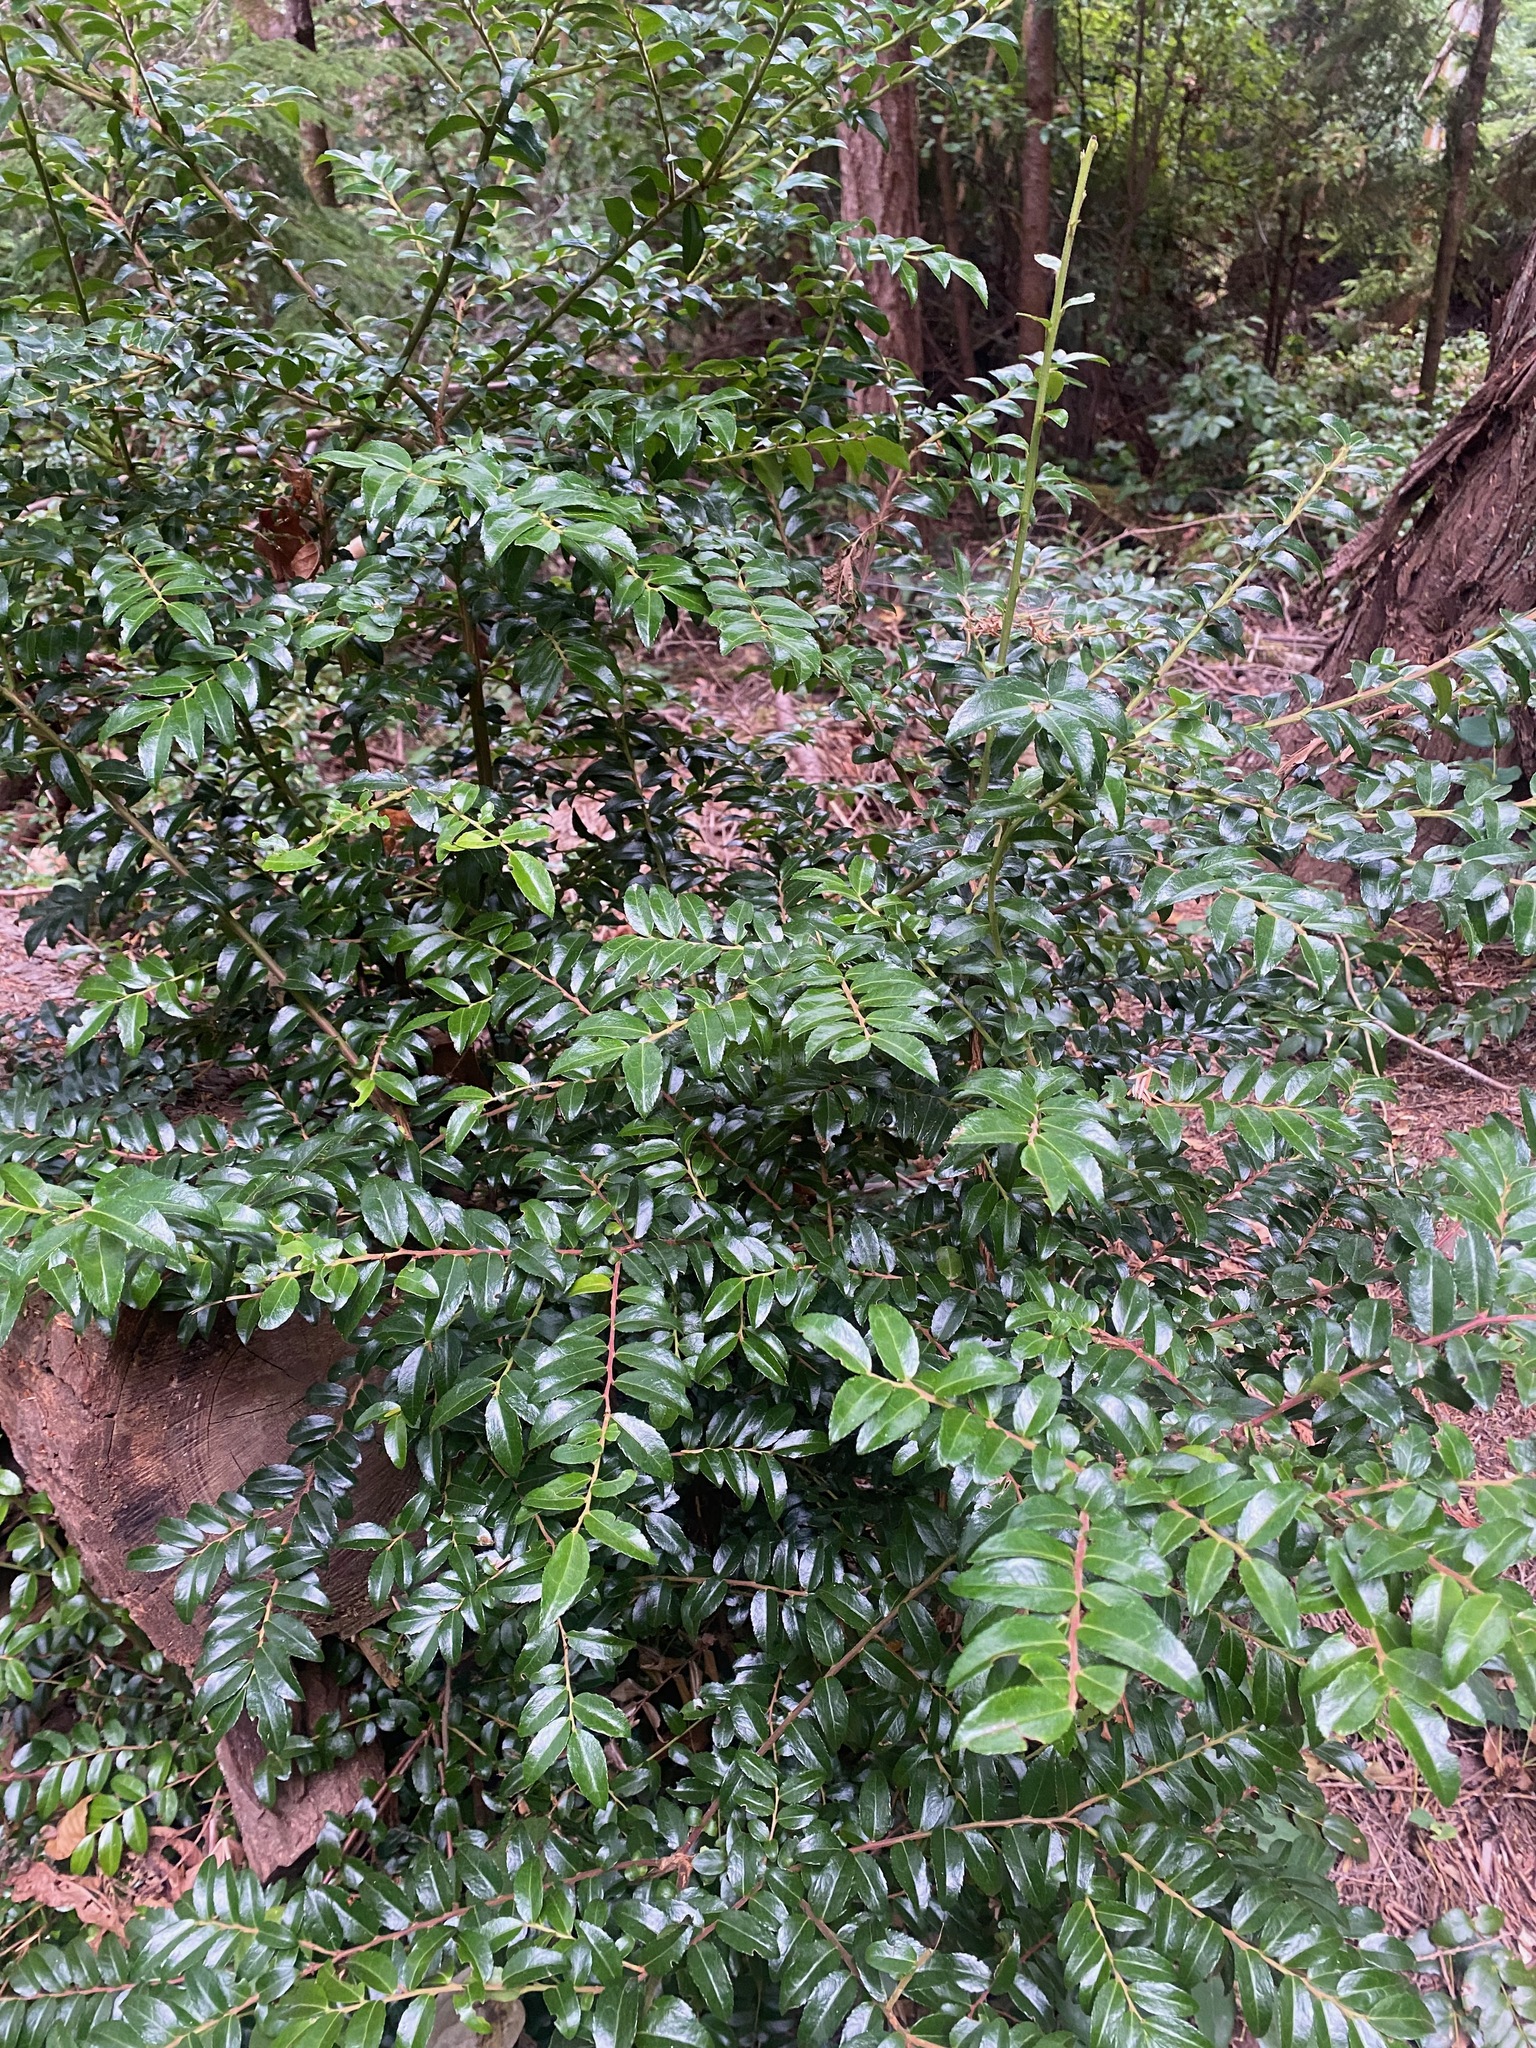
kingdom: Plantae
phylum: Tracheophyta
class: Magnoliopsida
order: Ericales
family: Ericaceae
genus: Vaccinium
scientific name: Vaccinium ovatum
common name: California-huckleberry
